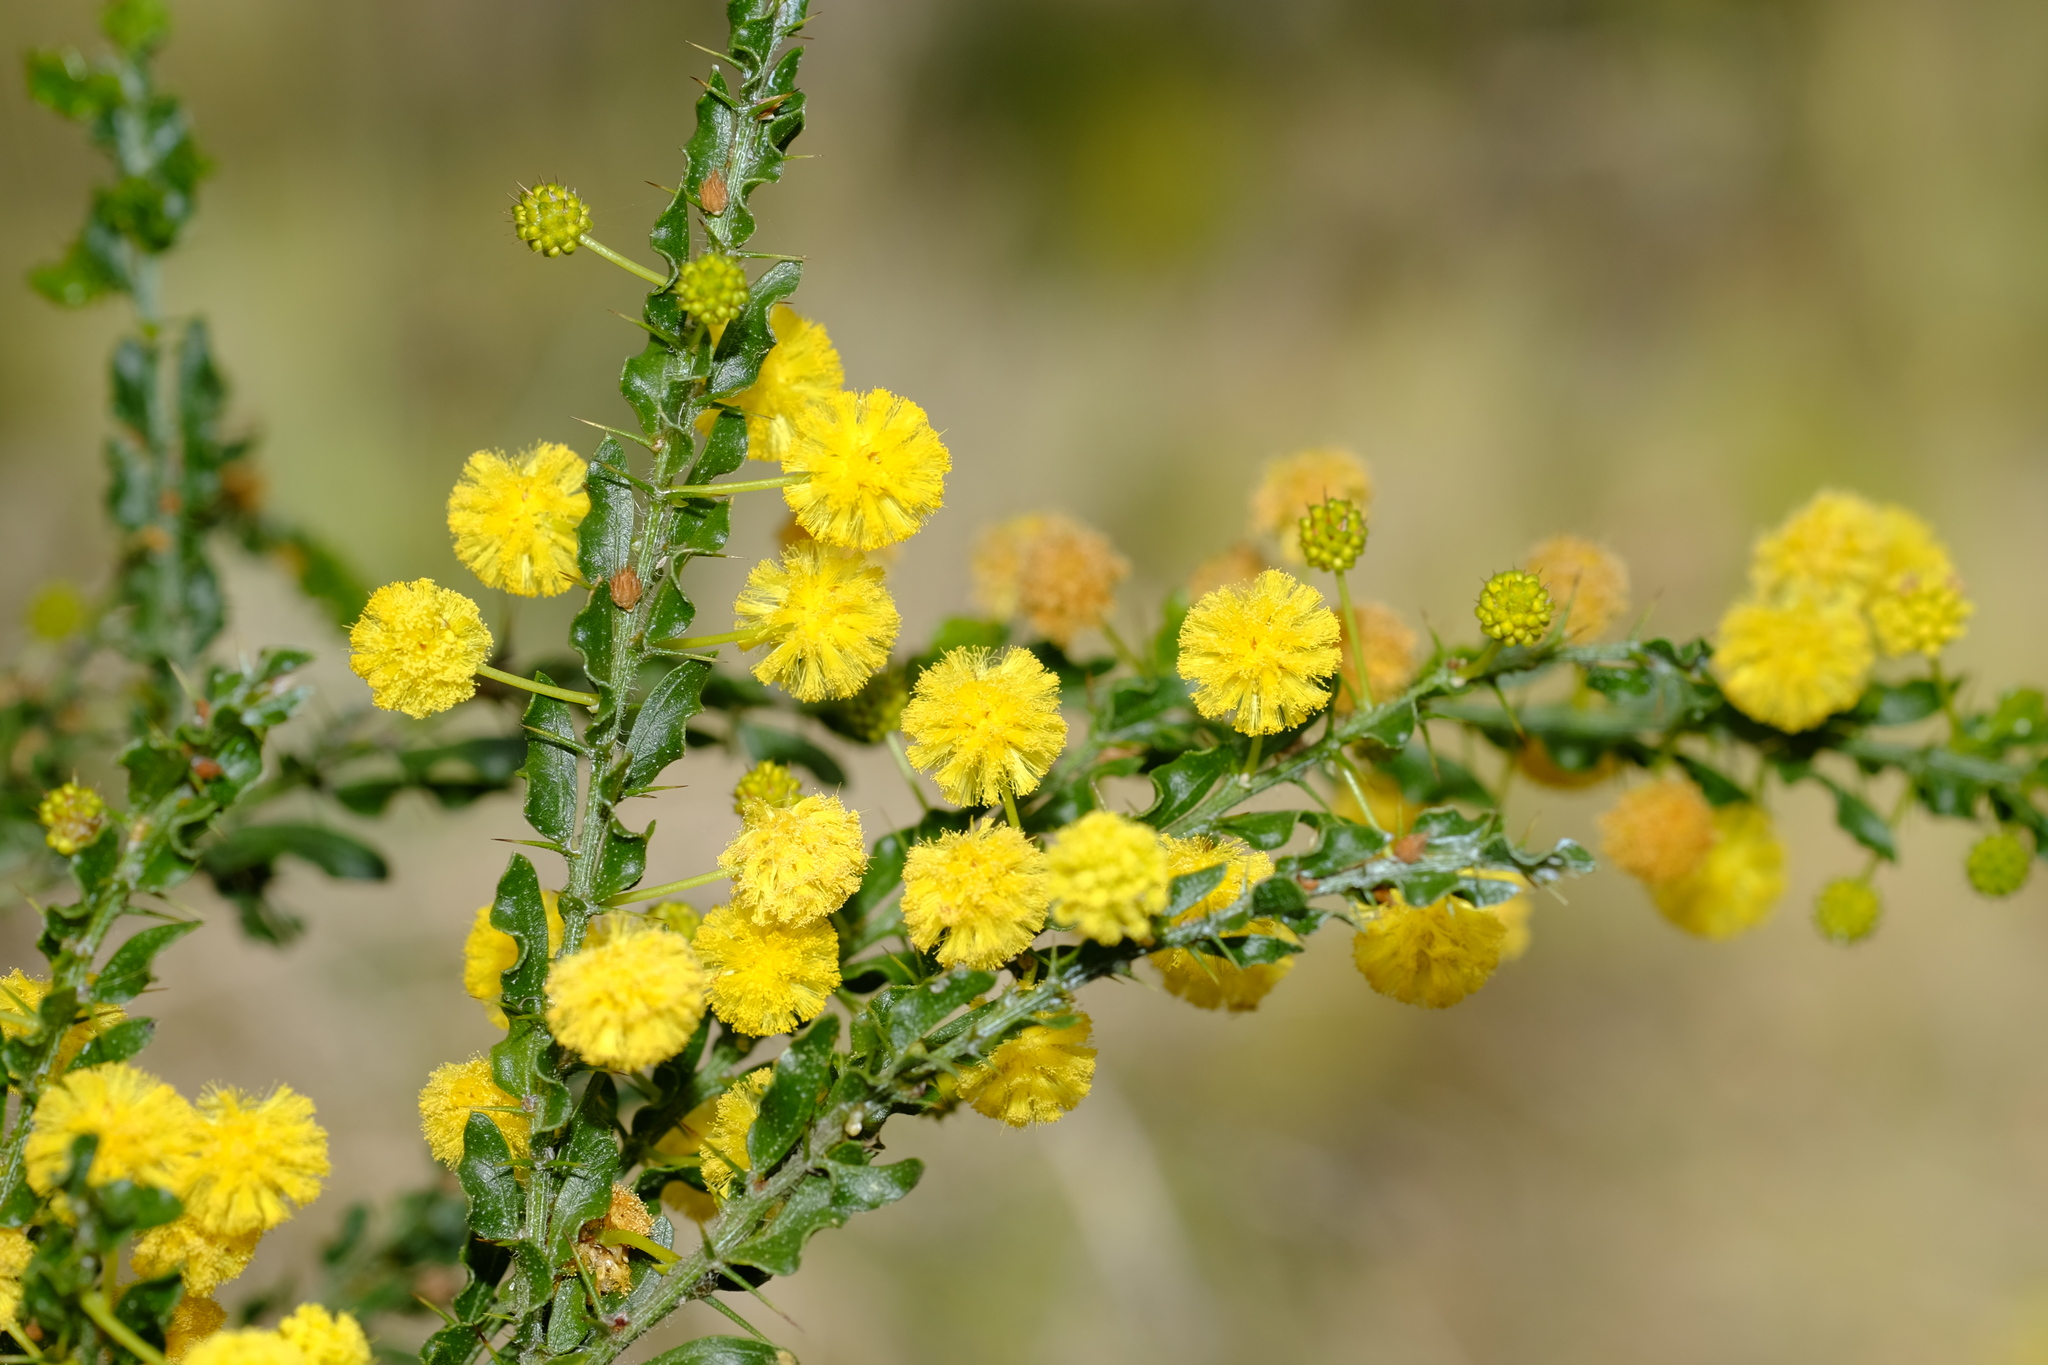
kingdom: Plantae
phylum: Tracheophyta
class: Magnoliopsida
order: Fabales
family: Fabaceae
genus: Acacia
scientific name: Acacia paradoxa
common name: Paradox acacia
